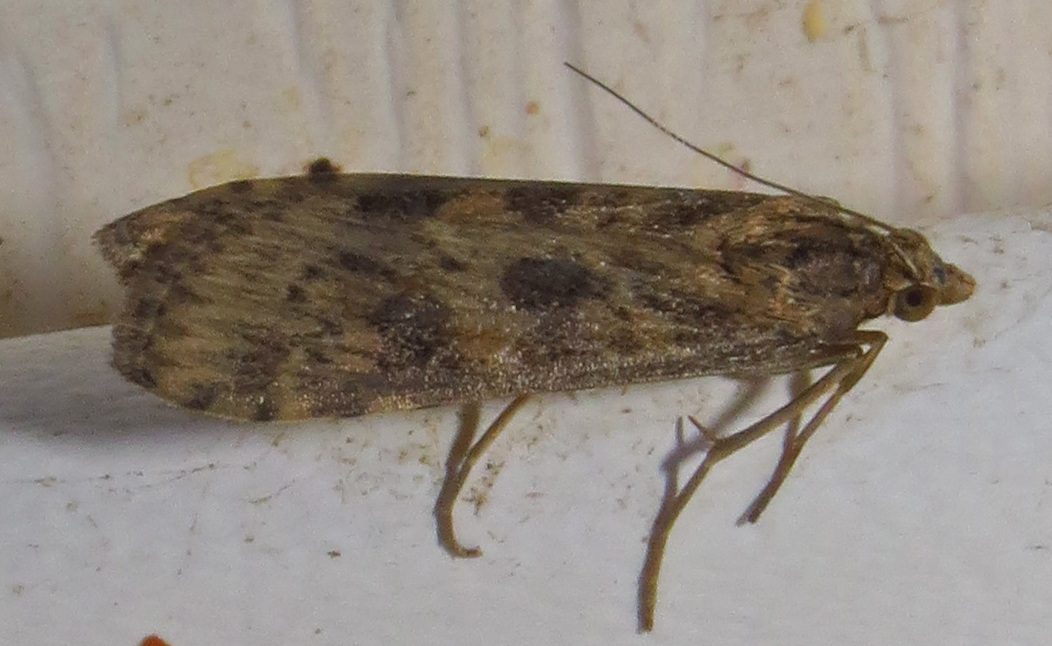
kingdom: Animalia
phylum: Arthropoda
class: Insecta
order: Lepidoptera
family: Crambidae
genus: Nomophila
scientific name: Nomophila nearctica
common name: American rush veneer
